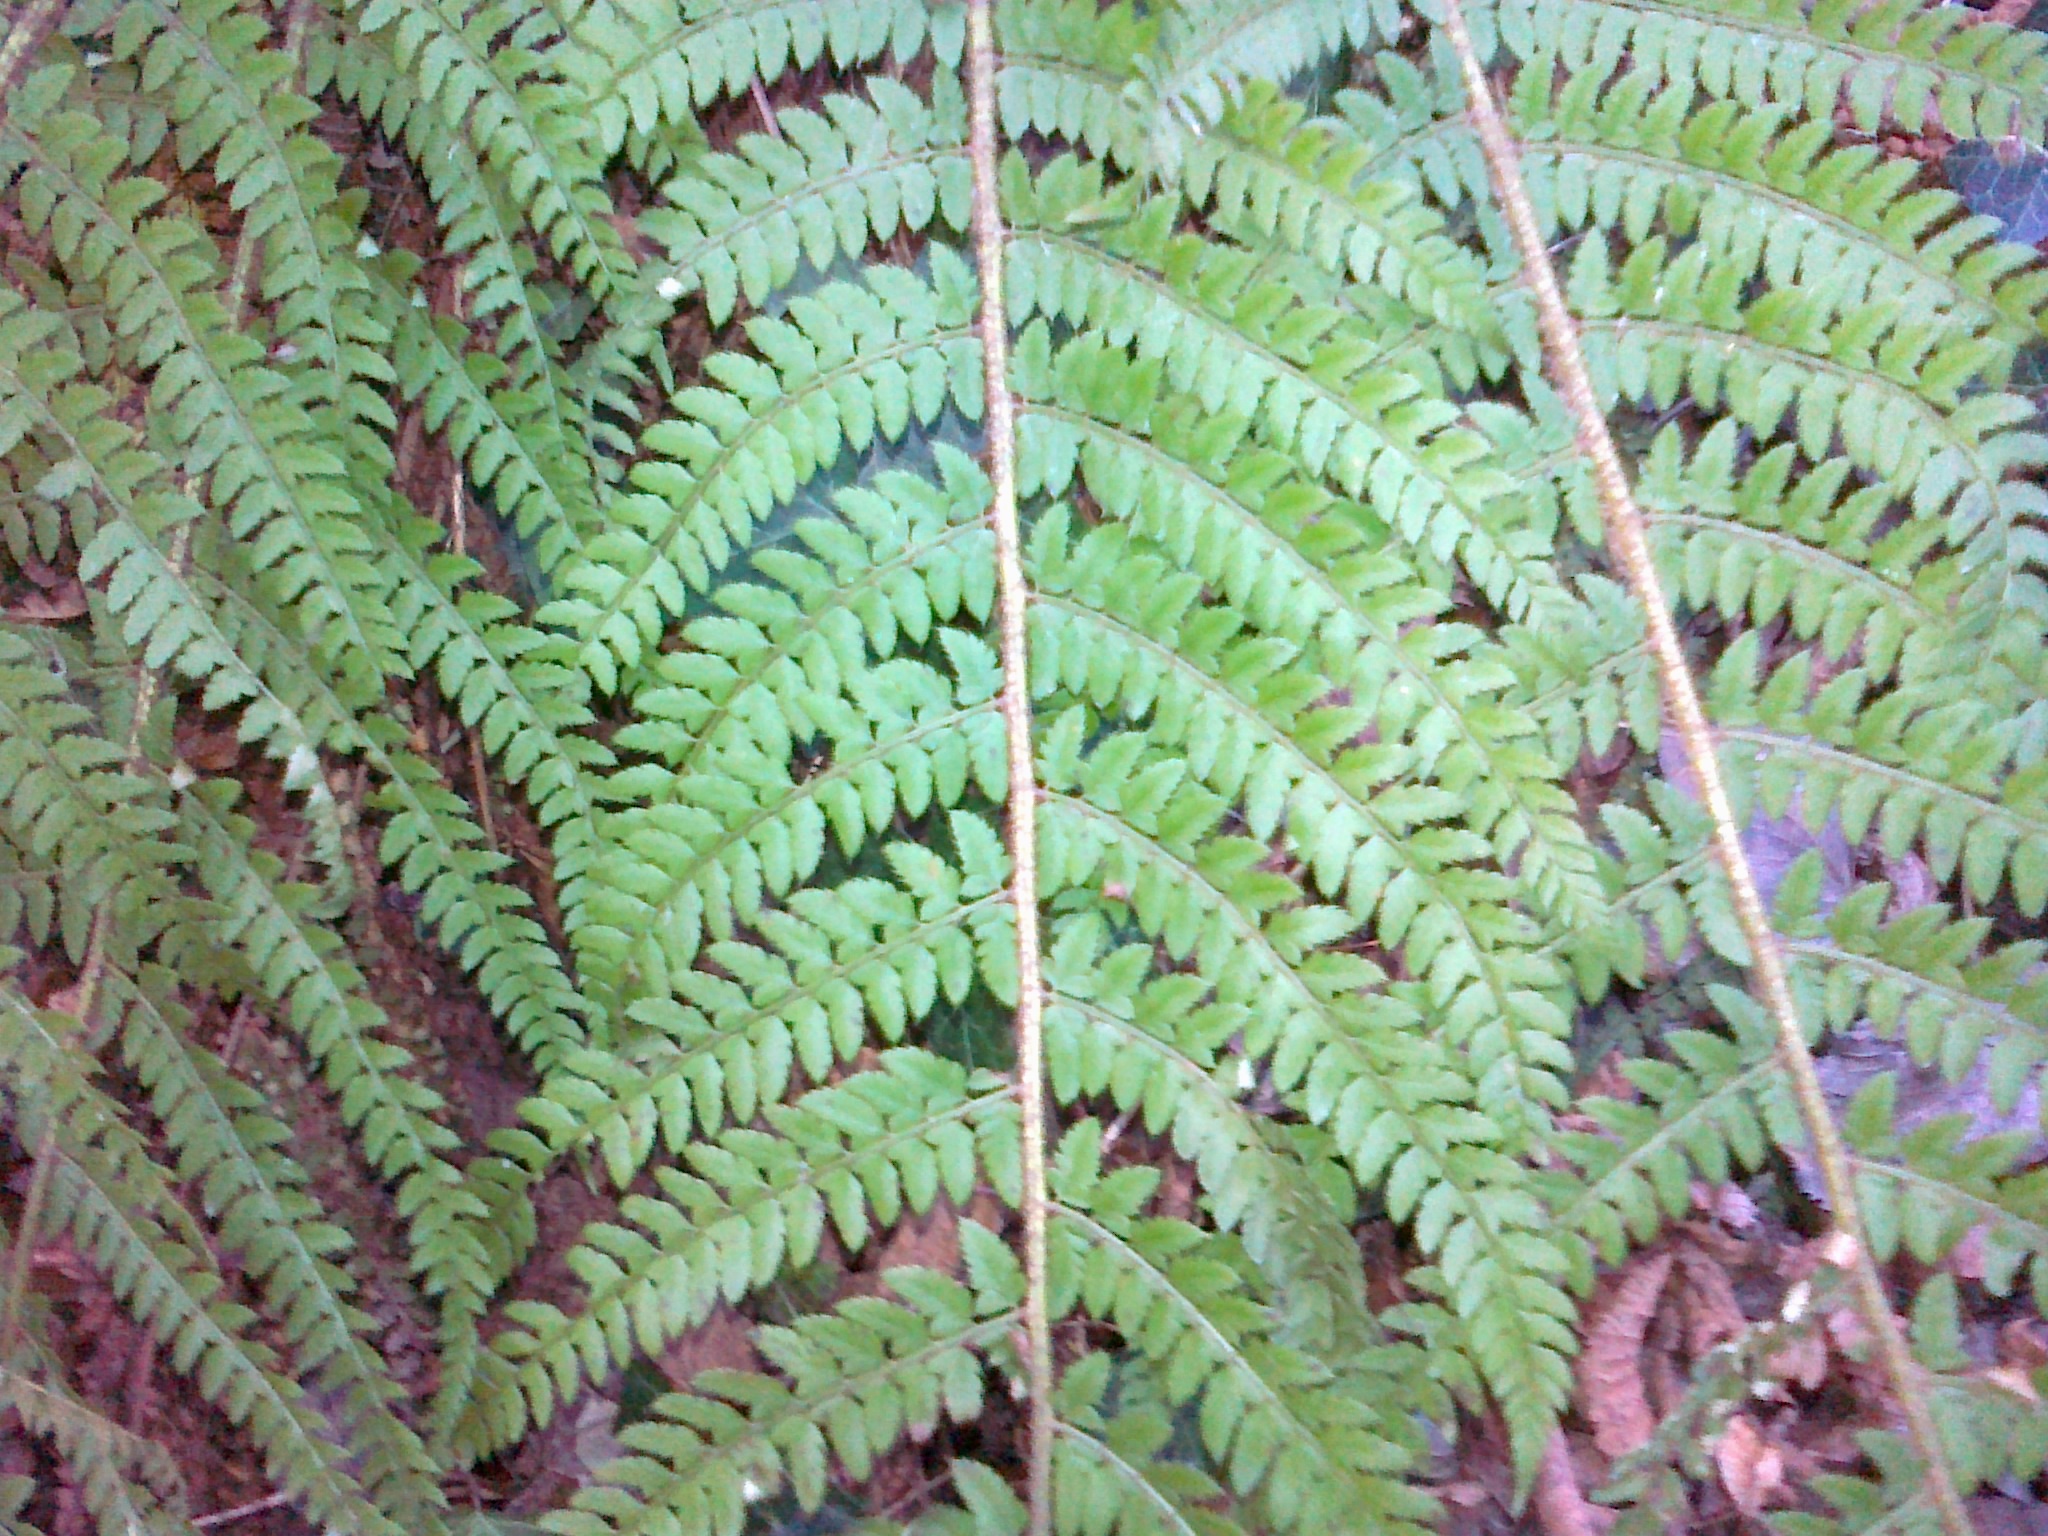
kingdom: Plantae
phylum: Tracheophyta
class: Polypodiopsida
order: Polypodiales
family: Dryopteridaceae
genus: Polystichum
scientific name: Polystichum setiferum
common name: Soft shield-fern
